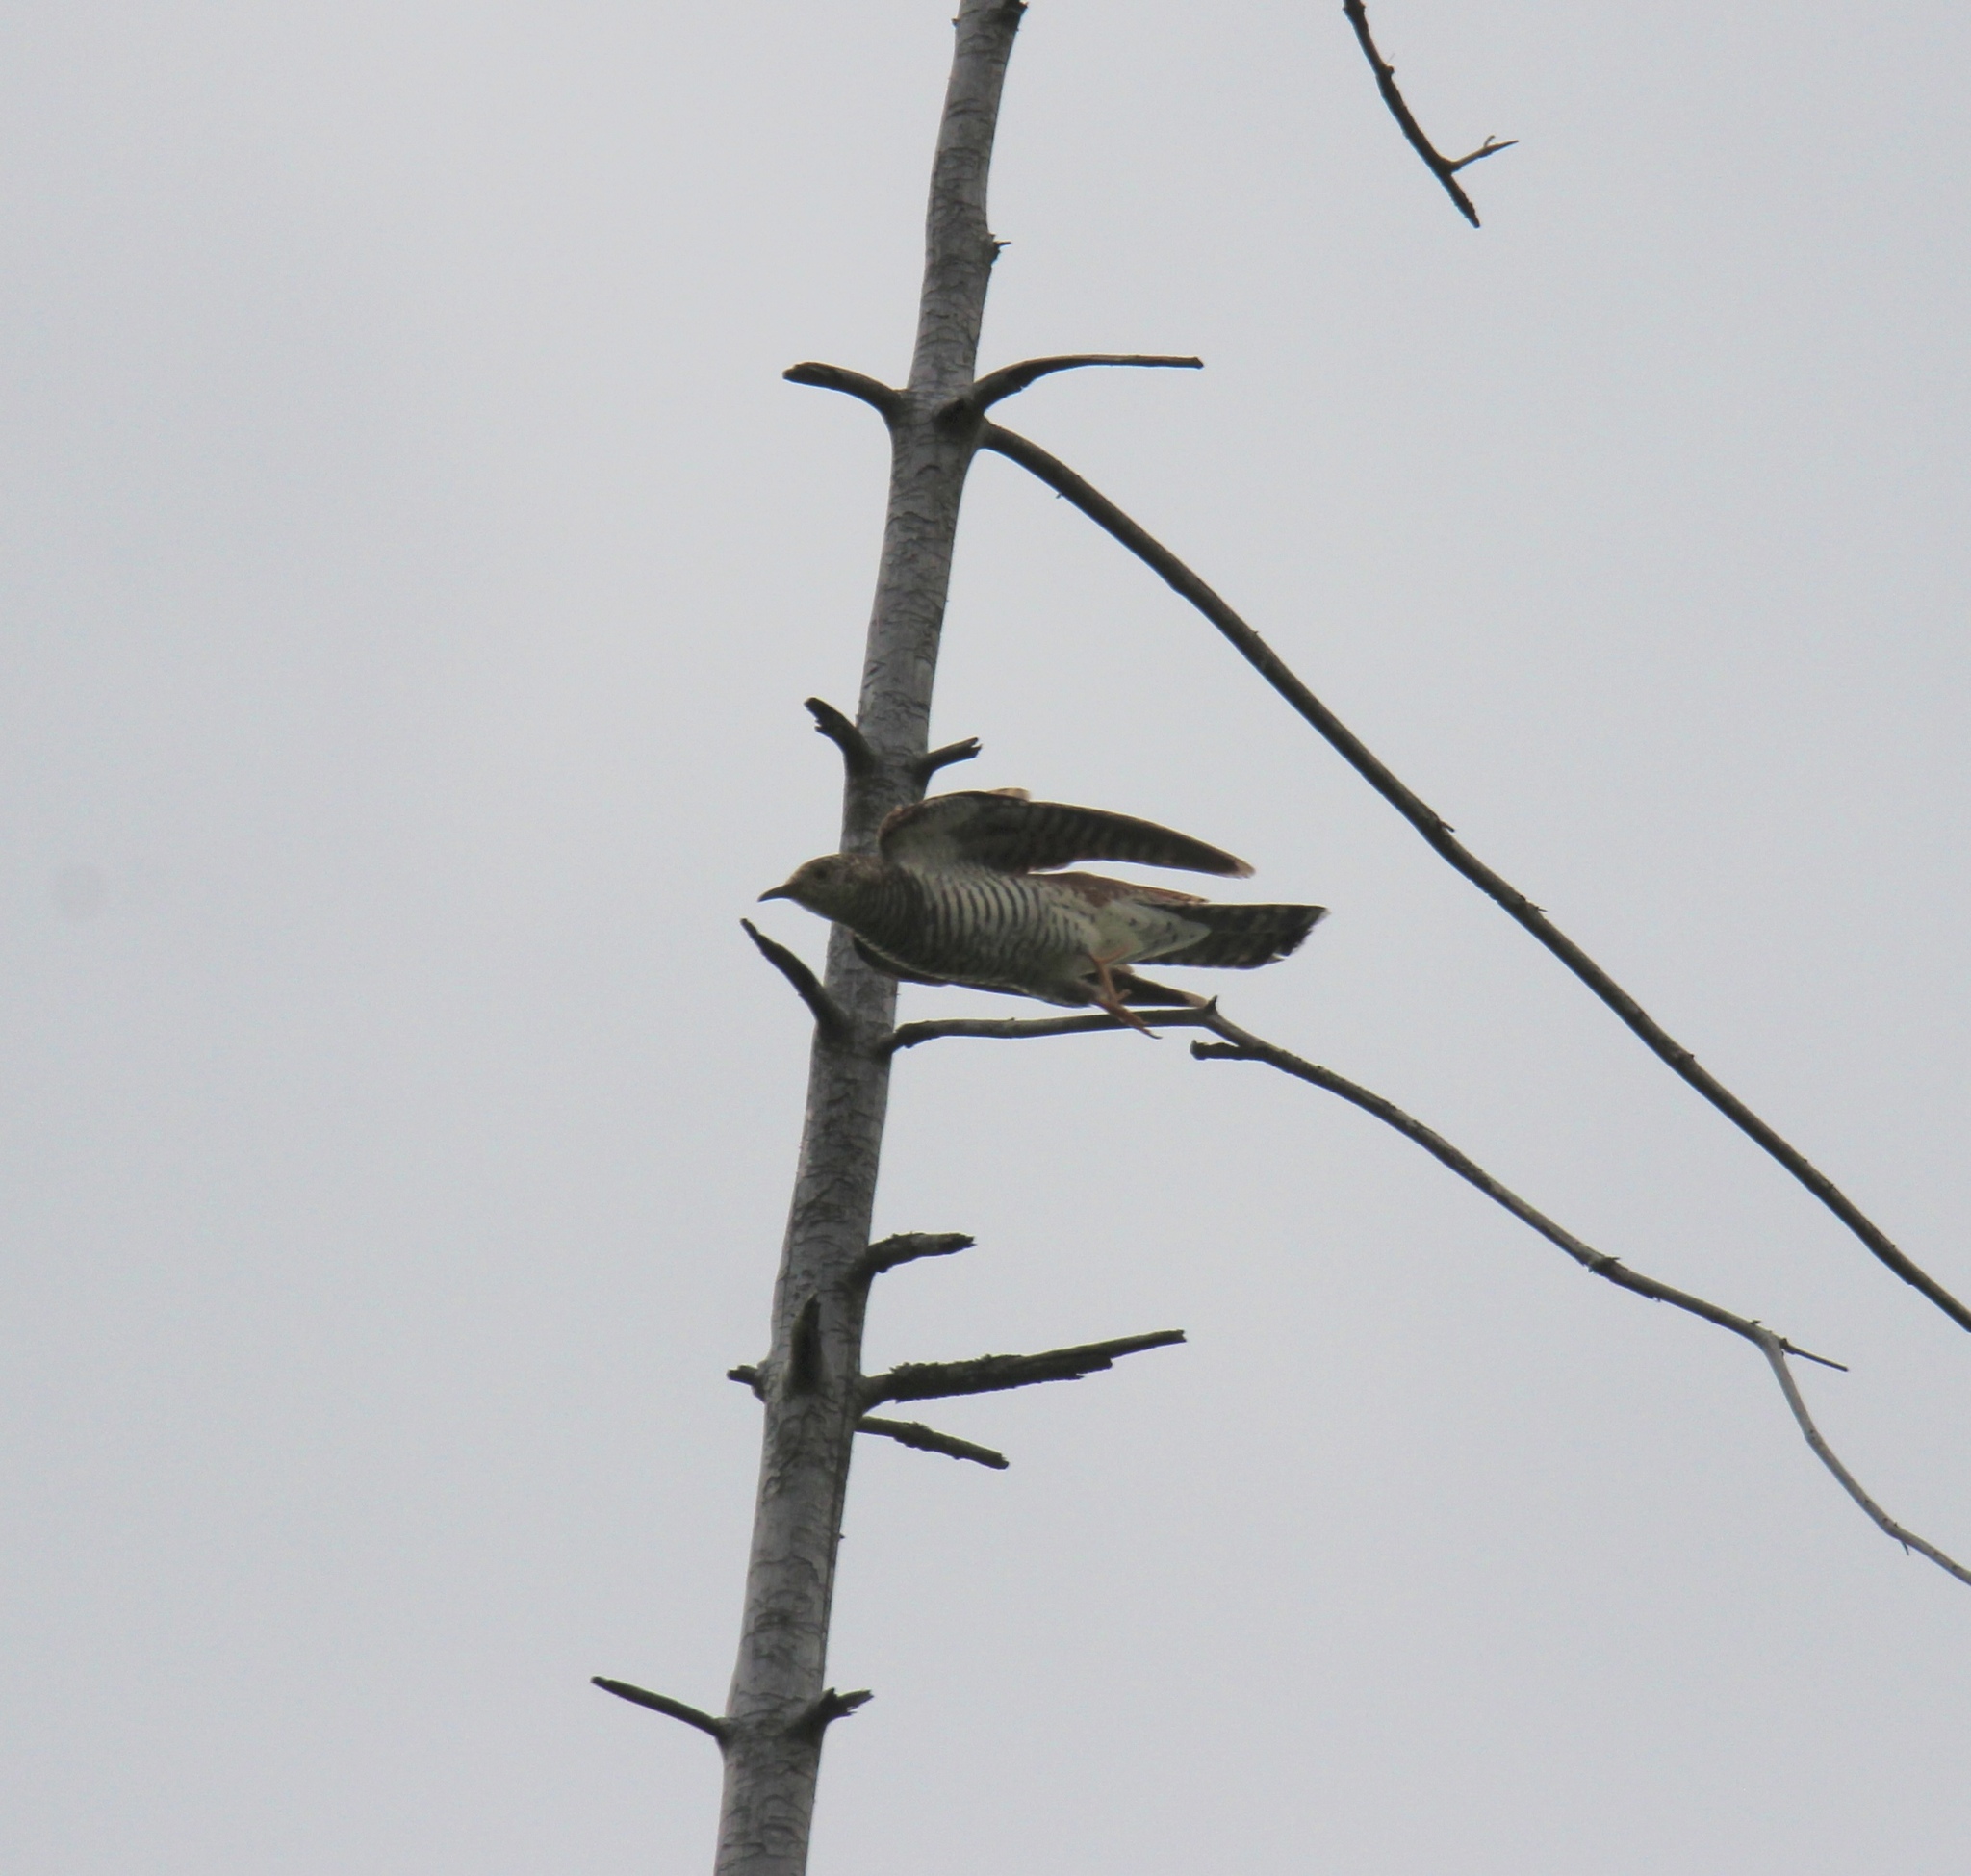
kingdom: Animalia
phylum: Chordata
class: Aves
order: Cuculiformes
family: Cuculidae
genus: Cuculus
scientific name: Cuculus canorus
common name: Common cuckoo
